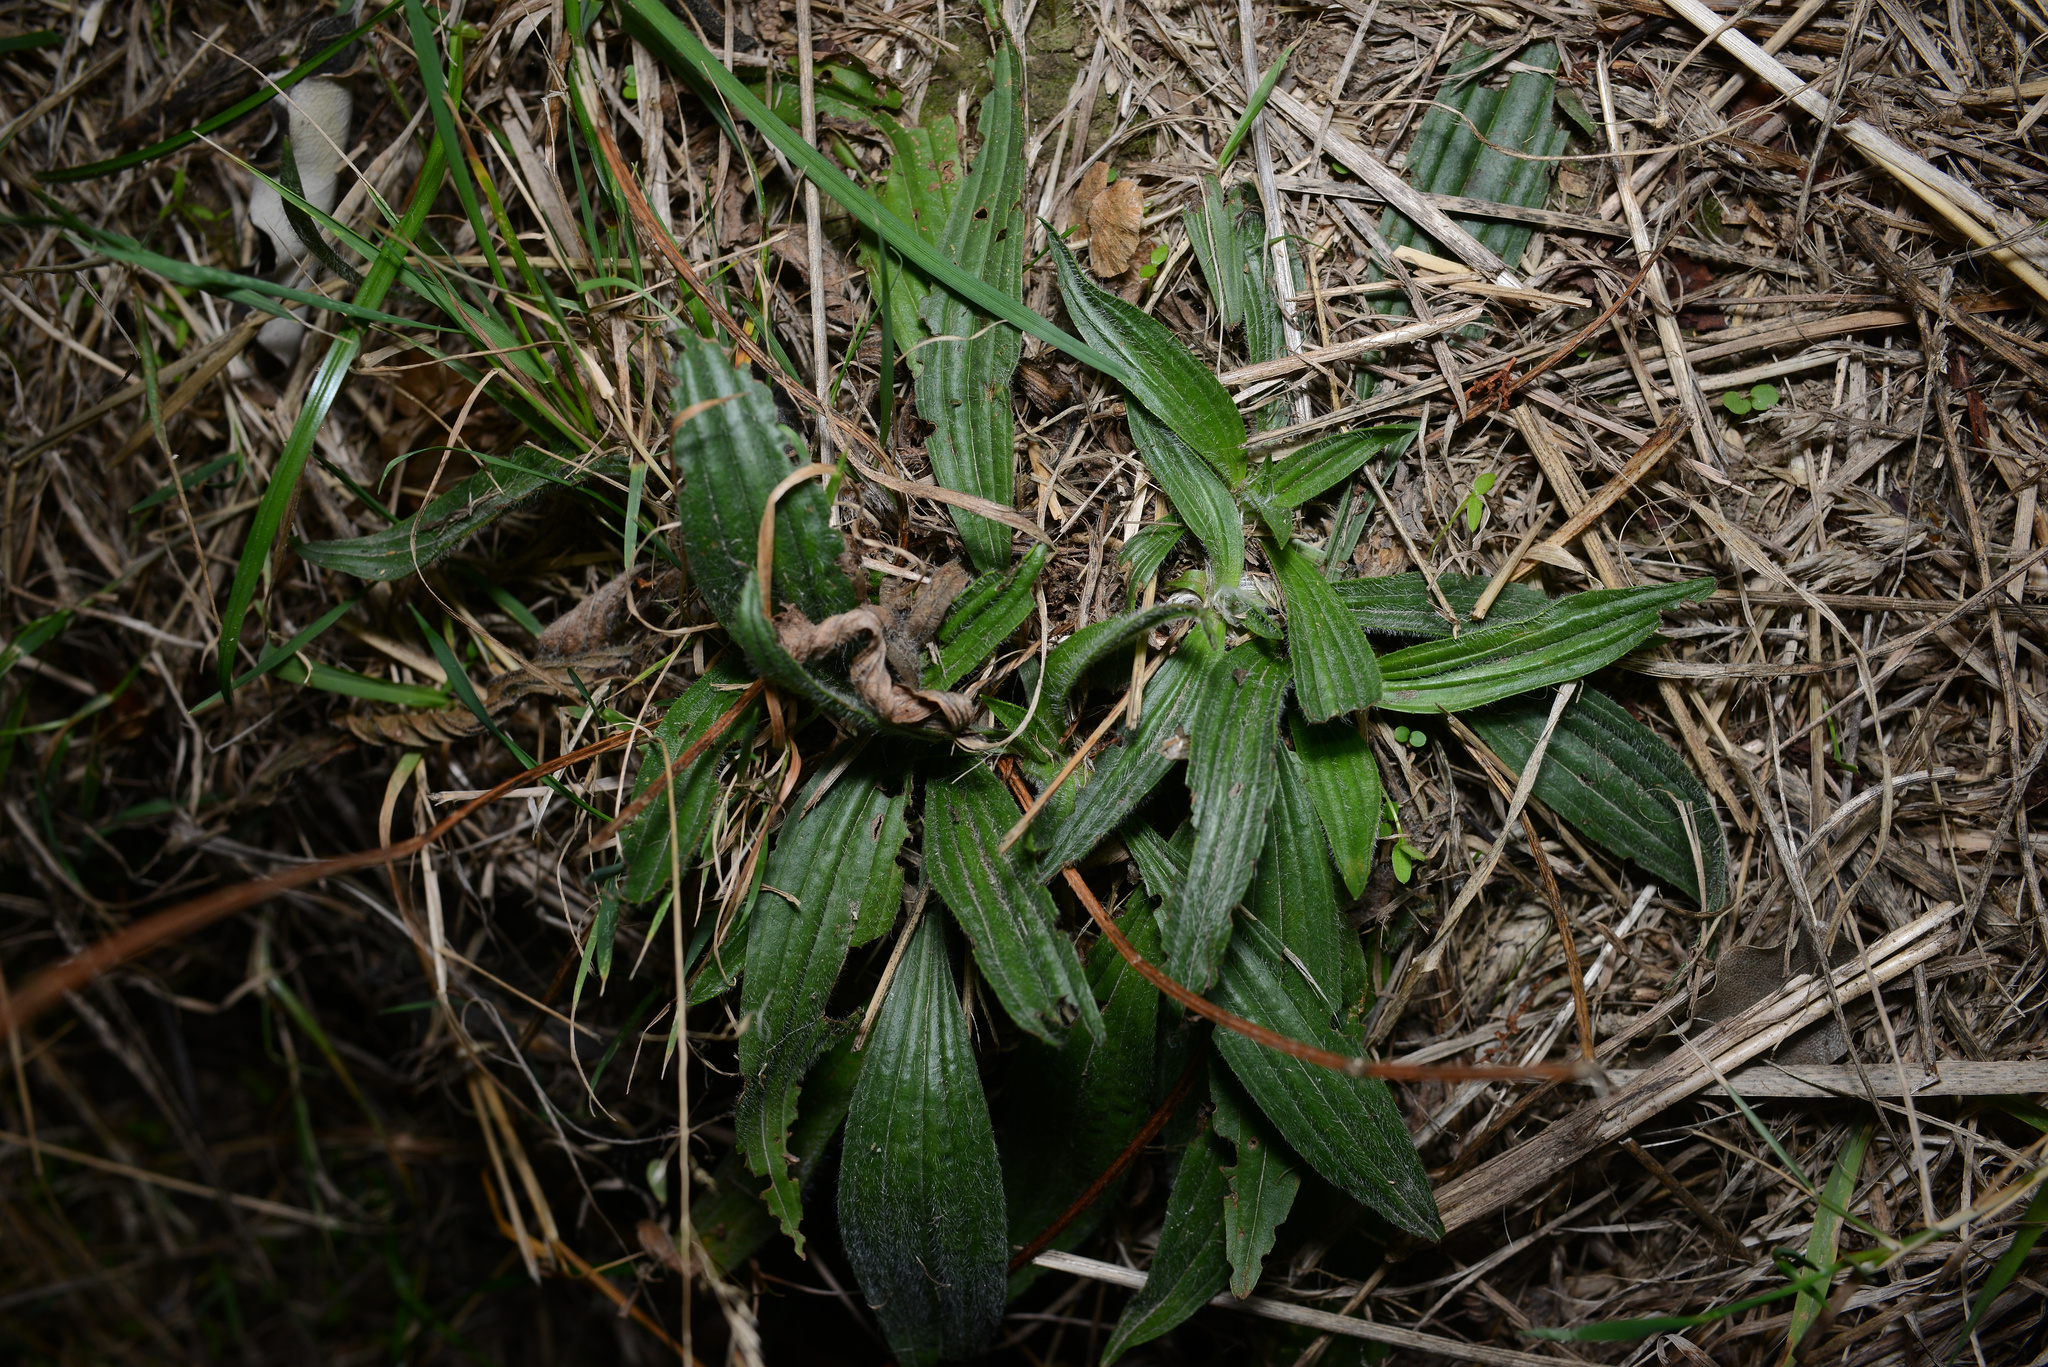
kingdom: Plantae
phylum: Tracheophyta
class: Magnoliopsida
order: Lamiales
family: Plantaginaceae
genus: Plantago
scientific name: Plantago lanceolata
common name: Ribwort plantain
